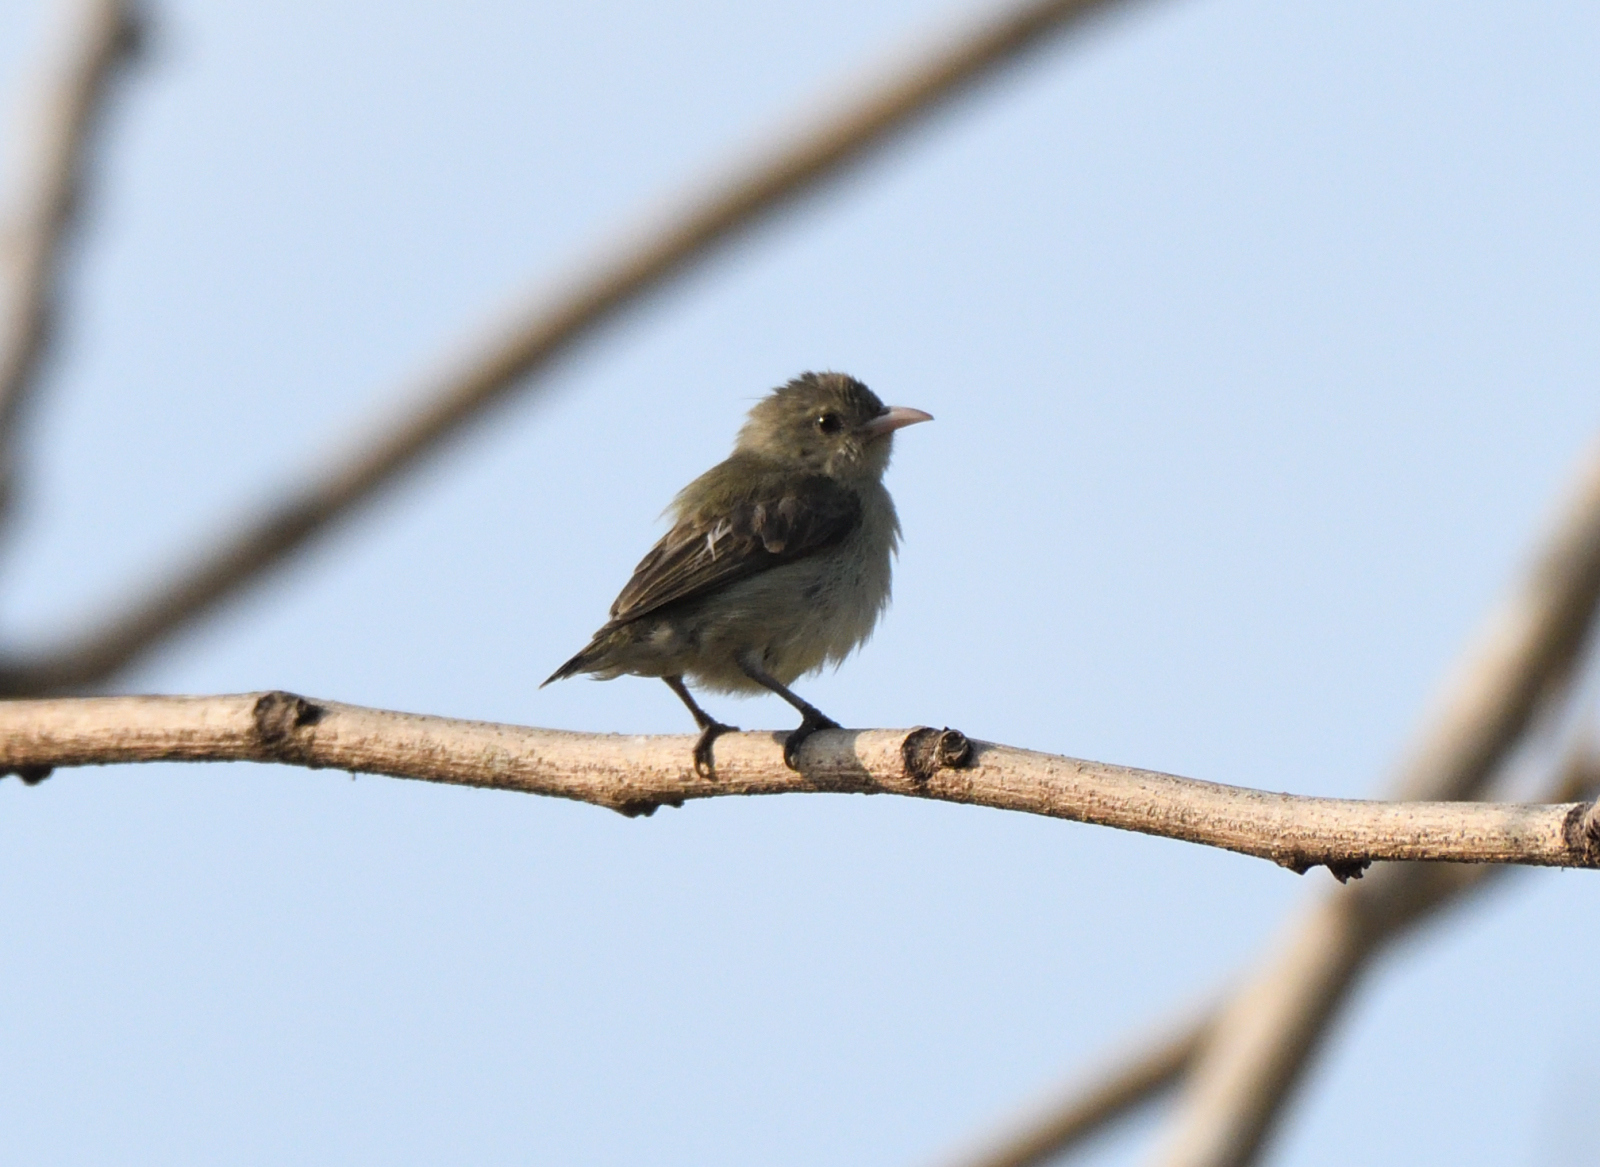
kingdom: Animalia
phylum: Chordata
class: Aves
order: Passeriformes
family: Dicaeidae
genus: Dicaeum
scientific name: Dicaeum erythrorhynchos
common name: Pale-billed flowerpecker
